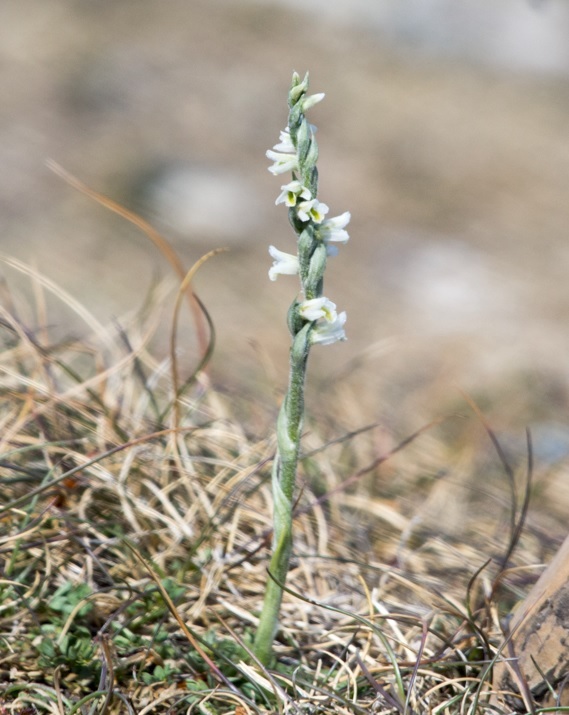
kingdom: Plantae
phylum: Tracheophyta
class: Liliopsida
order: Asparagales
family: Orchidaceae
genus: Spiranthes
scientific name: Spiranthes spiralis
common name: Autumn lady's-tresses
